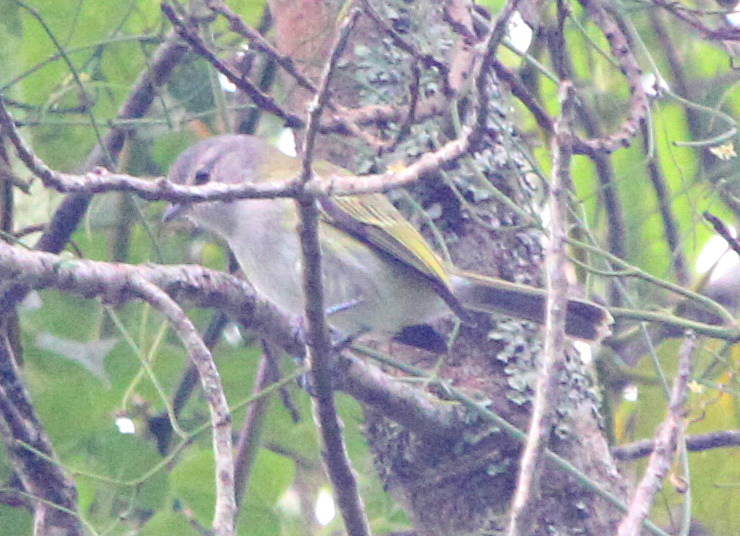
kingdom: Animalia
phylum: Chordata
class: Aves
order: Passeriformes
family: Tyrannidae
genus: Phyllomyias
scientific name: Phyllomyias griseocapilla
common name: Grey-capped tyrannulet
